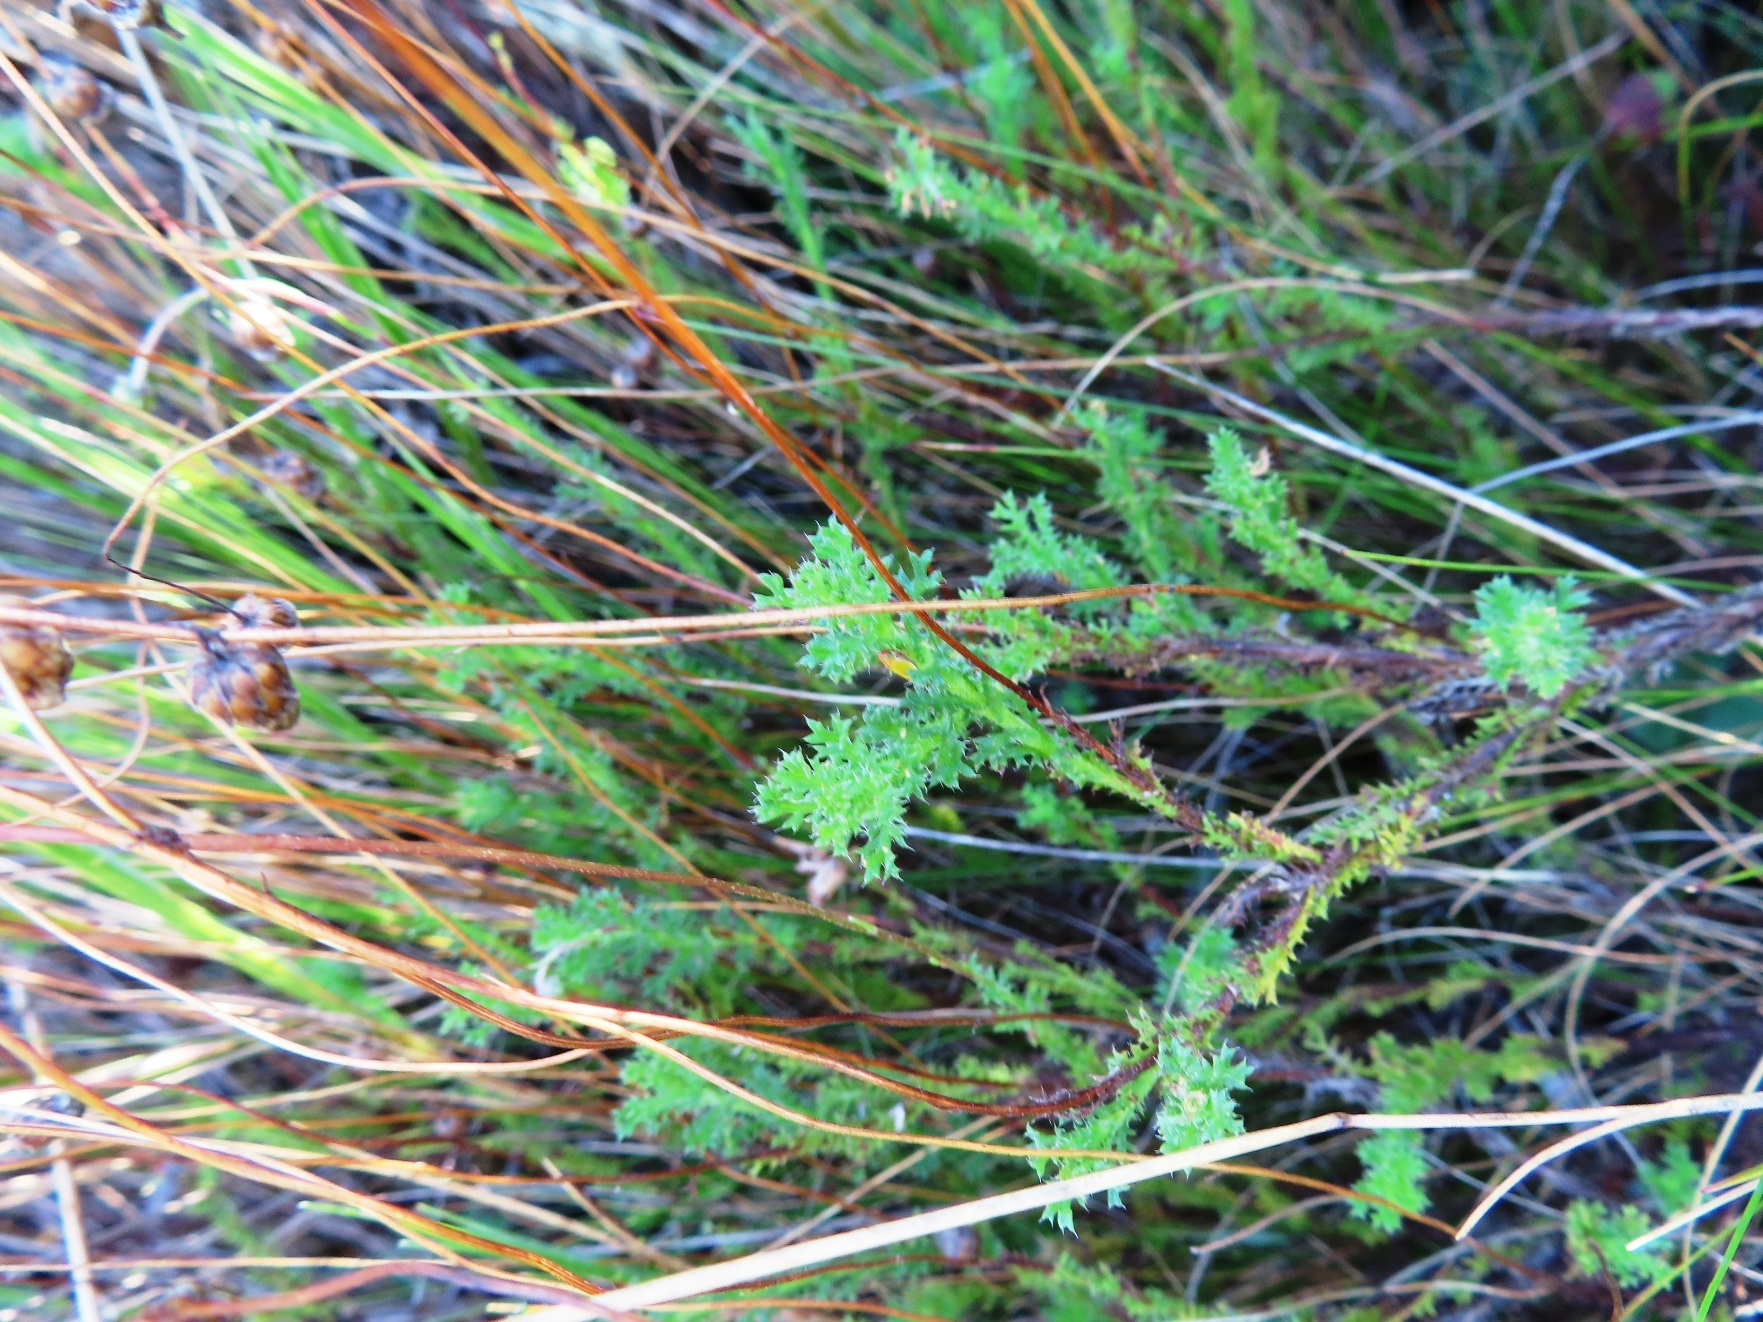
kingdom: Plantae
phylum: Tracheophyta
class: Magnoliopsida
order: Asterales
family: Asteraceae
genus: Ursinia
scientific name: Ursinia dentata
